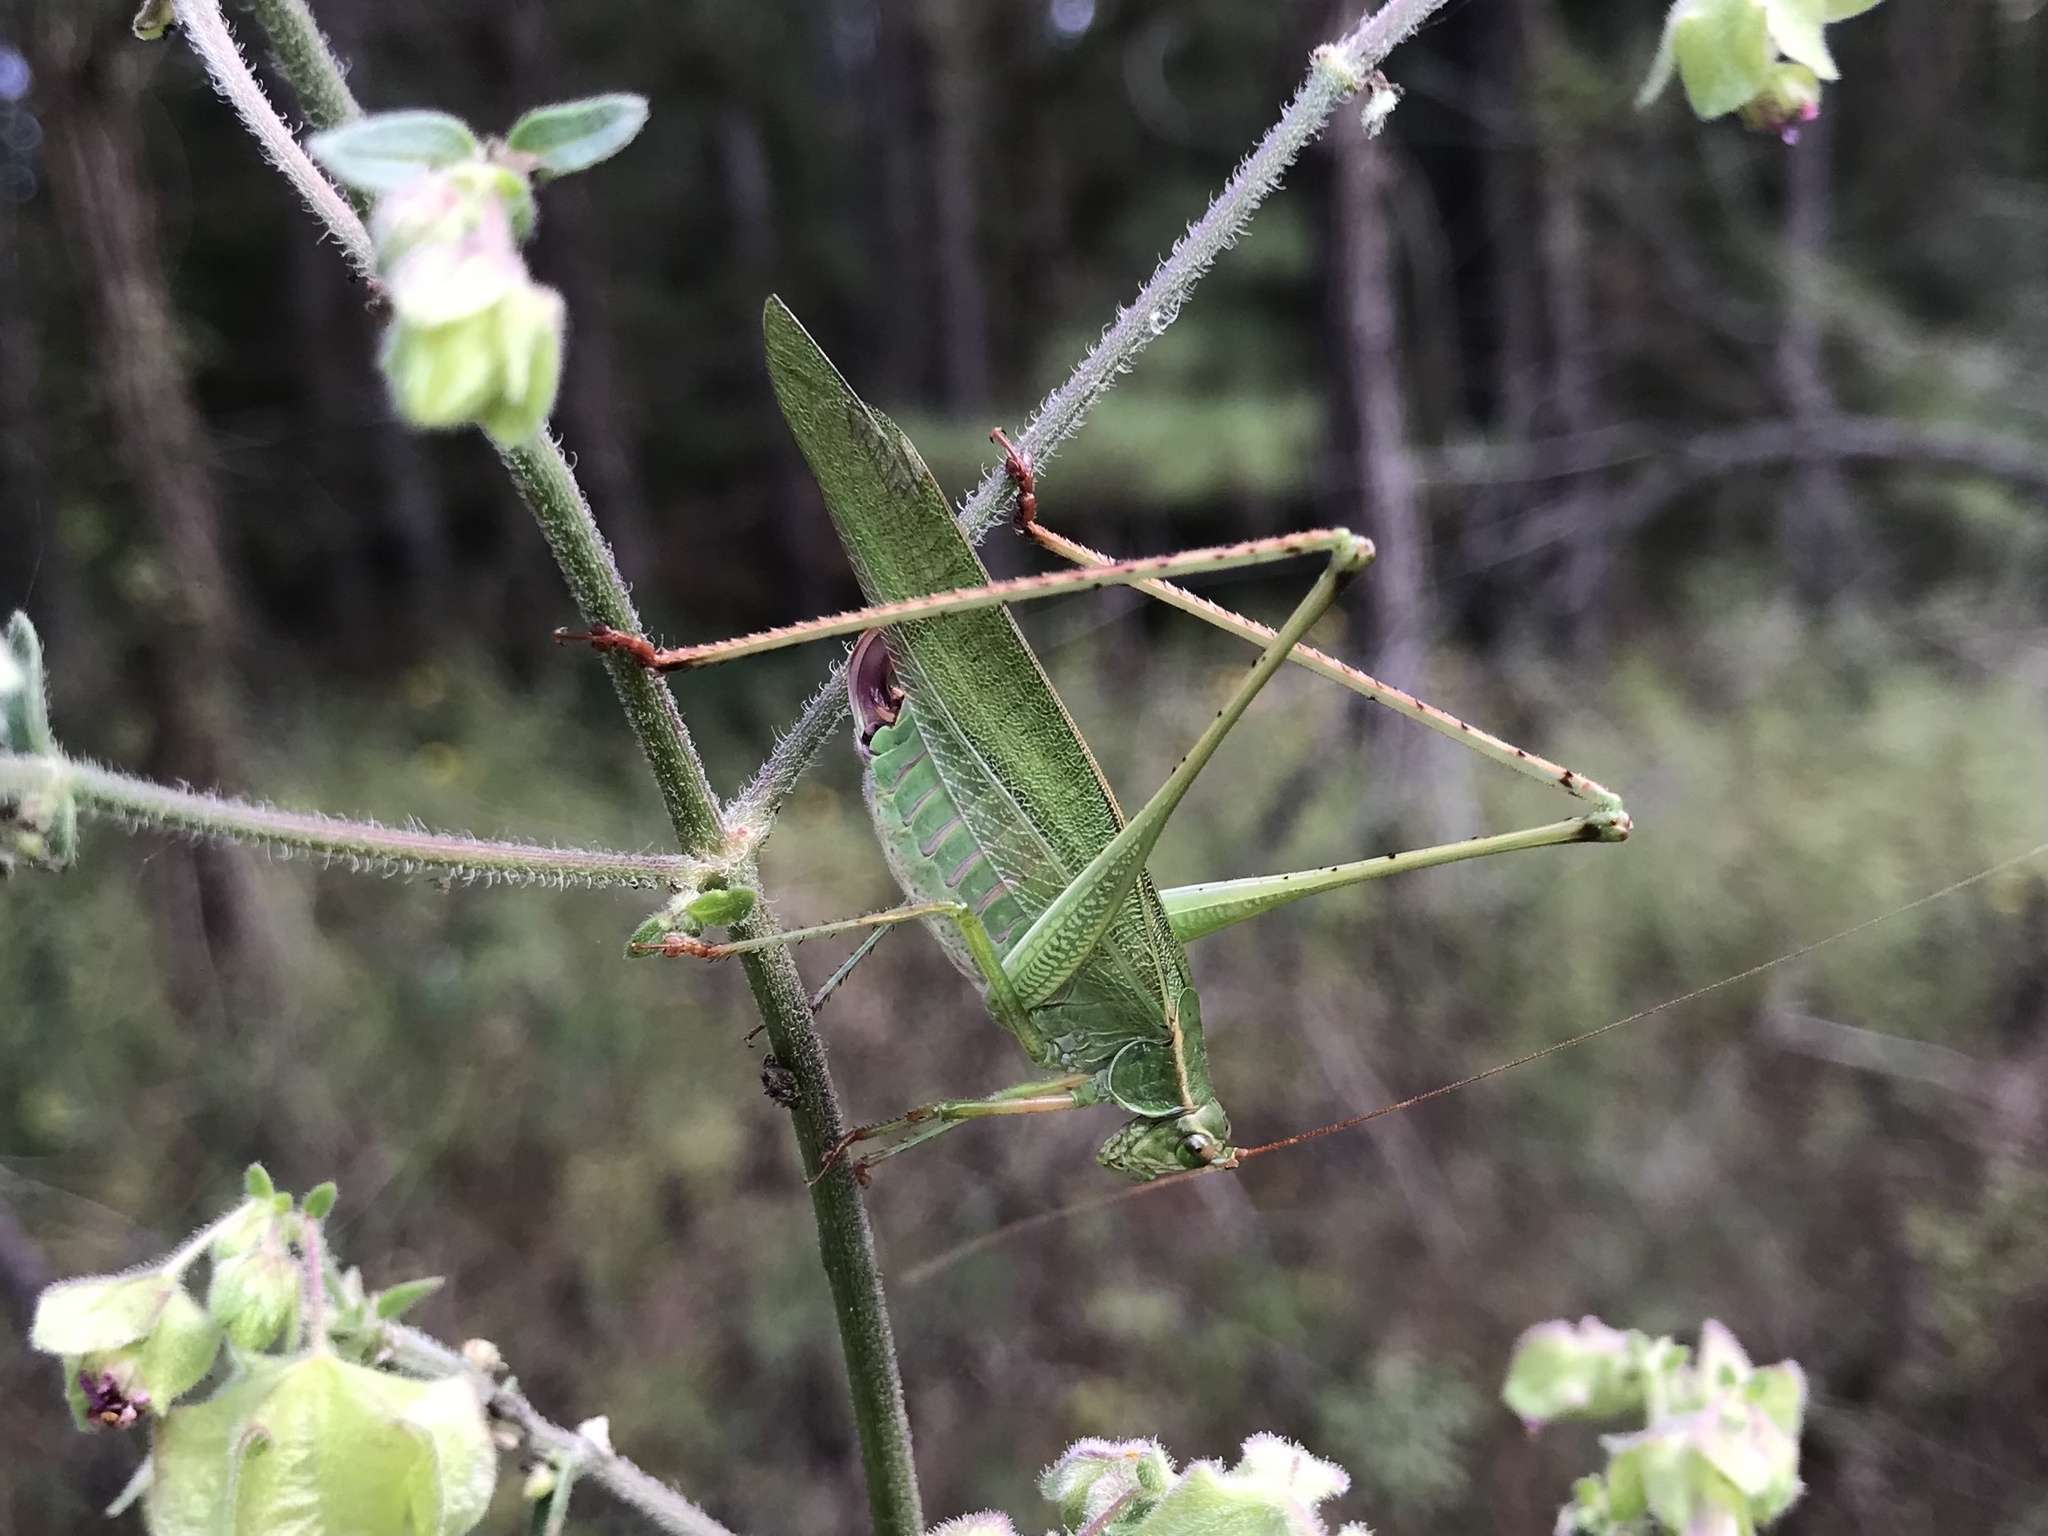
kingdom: Animalia
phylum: Arthropoda
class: Insecta
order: Orthoptera
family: Tettigoniidae
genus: Scudderia
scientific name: Scudderia furcata
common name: Fork-tailed bush katydid
